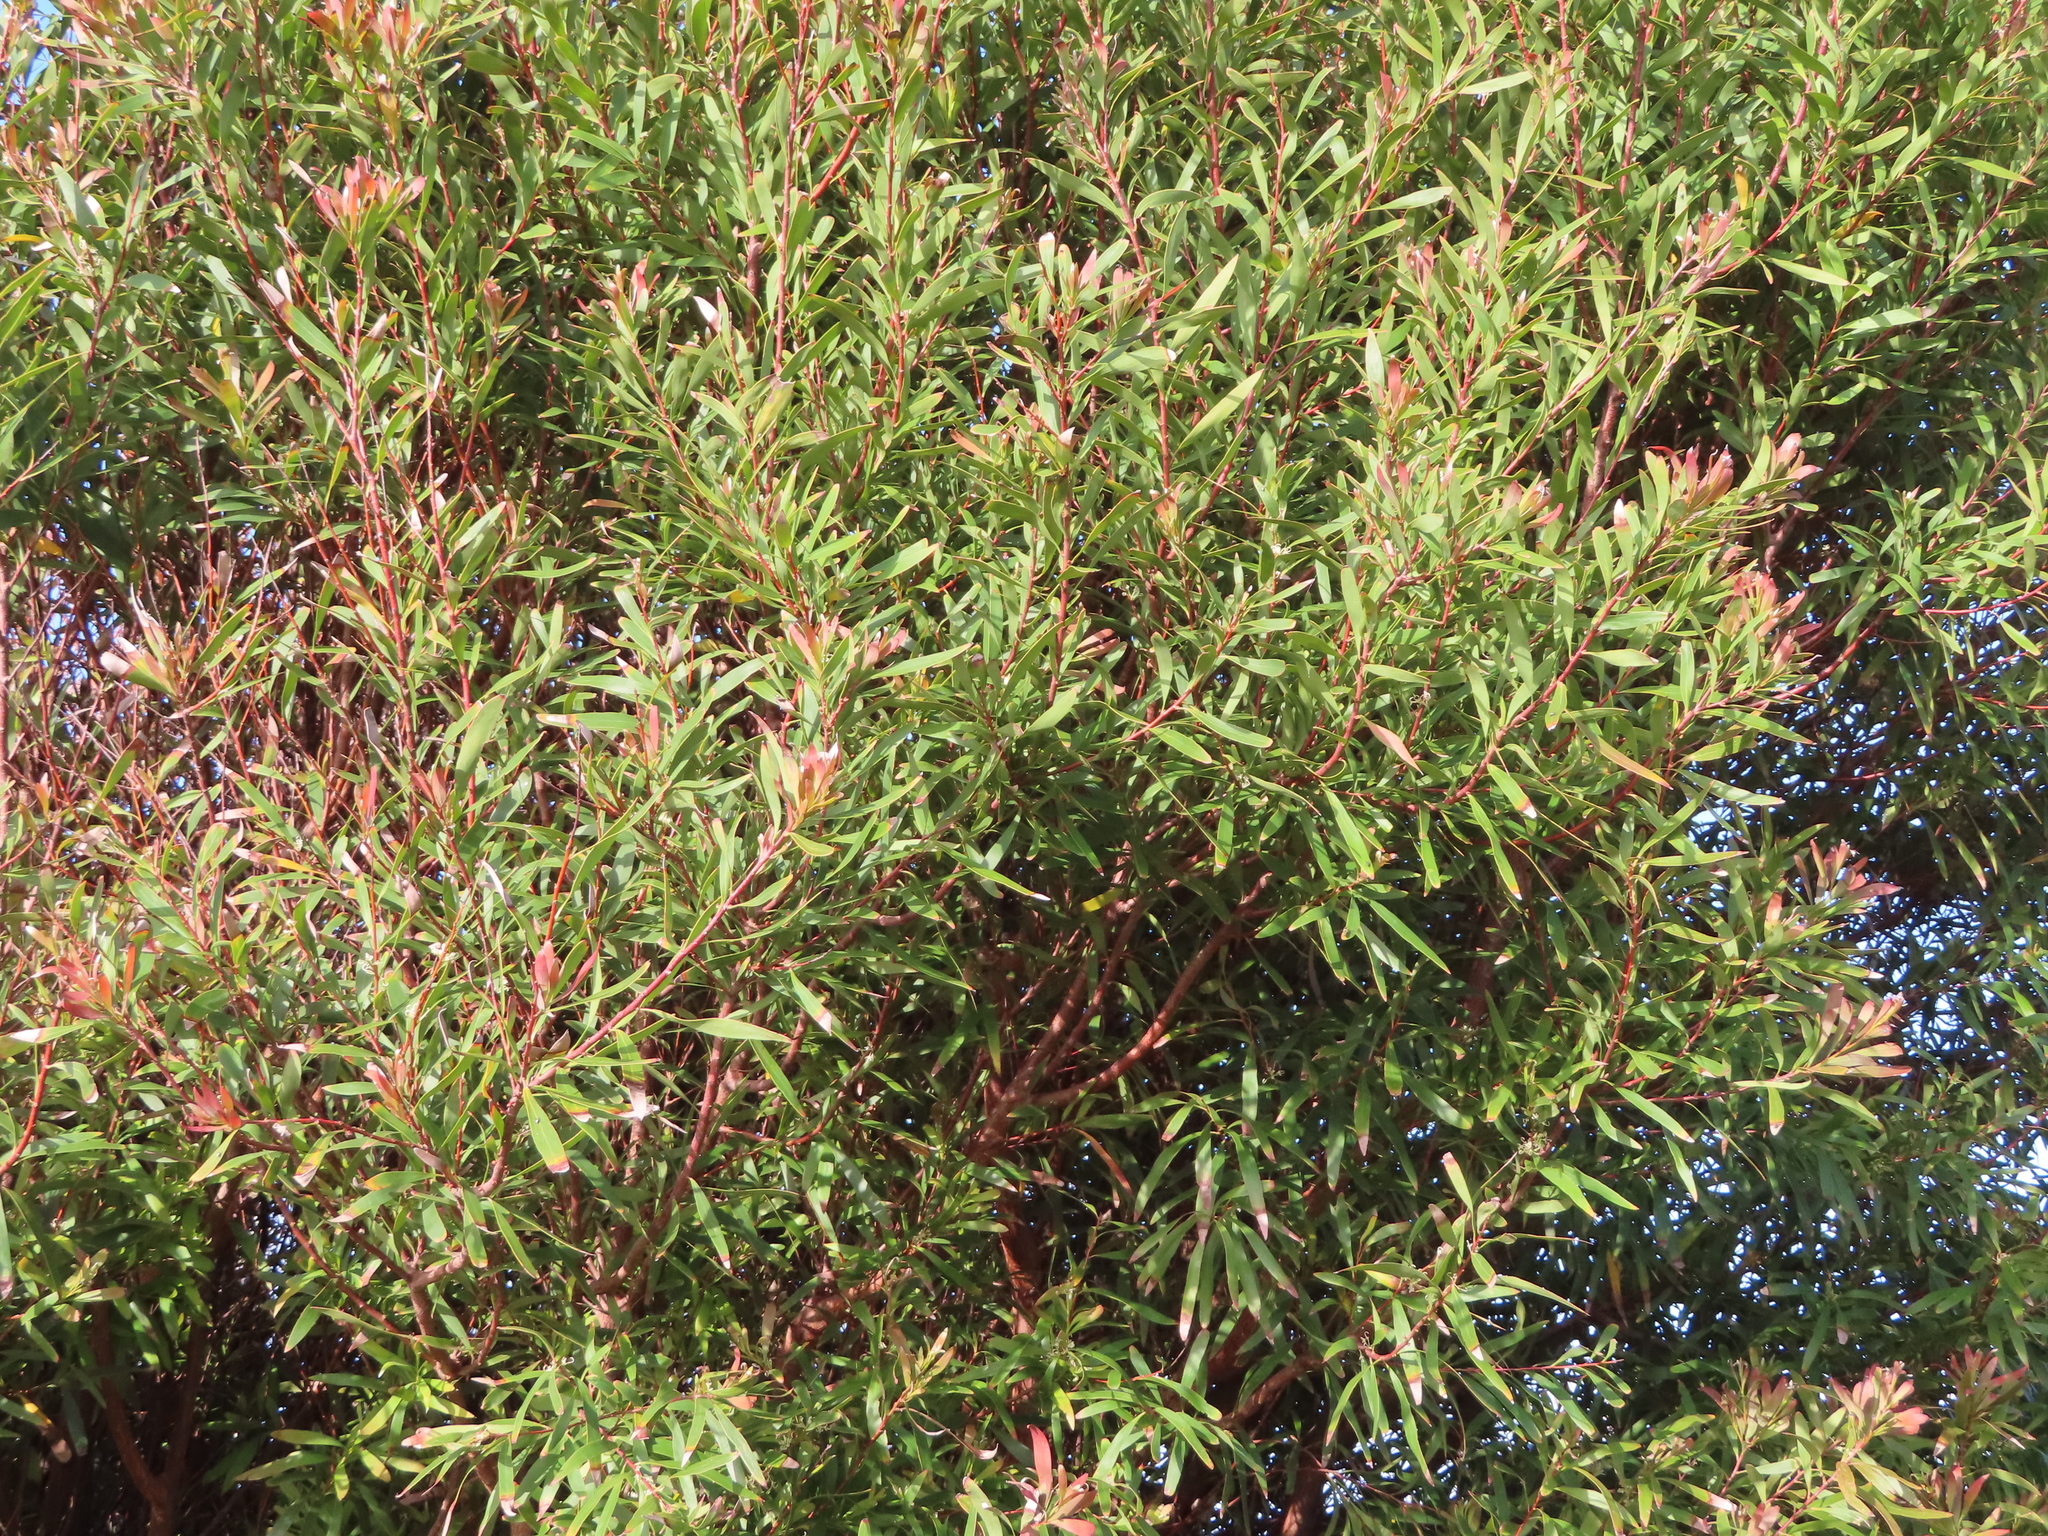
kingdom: Plantae
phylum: Tracheophyta
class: Magnoliopsida
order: Proteales
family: Proteaceae
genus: Hakea
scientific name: Hakea salicifolia
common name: Willow hakea
